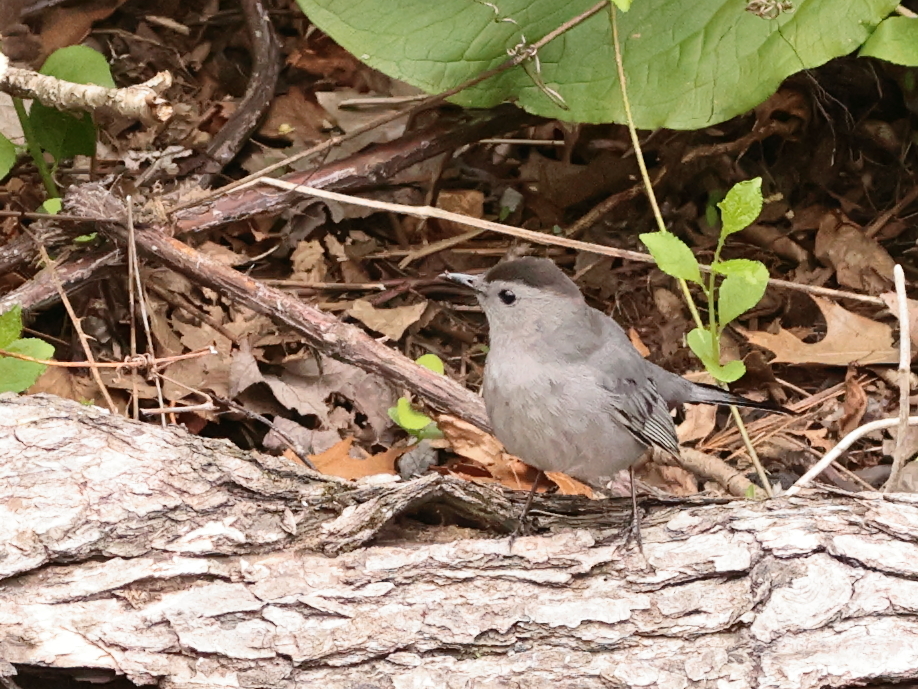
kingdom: Animalia
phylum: Chordata
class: Aves
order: Passeriformes
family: Mimidae
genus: Dumetella
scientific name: Dumetella carolinensis
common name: Gray catbird
